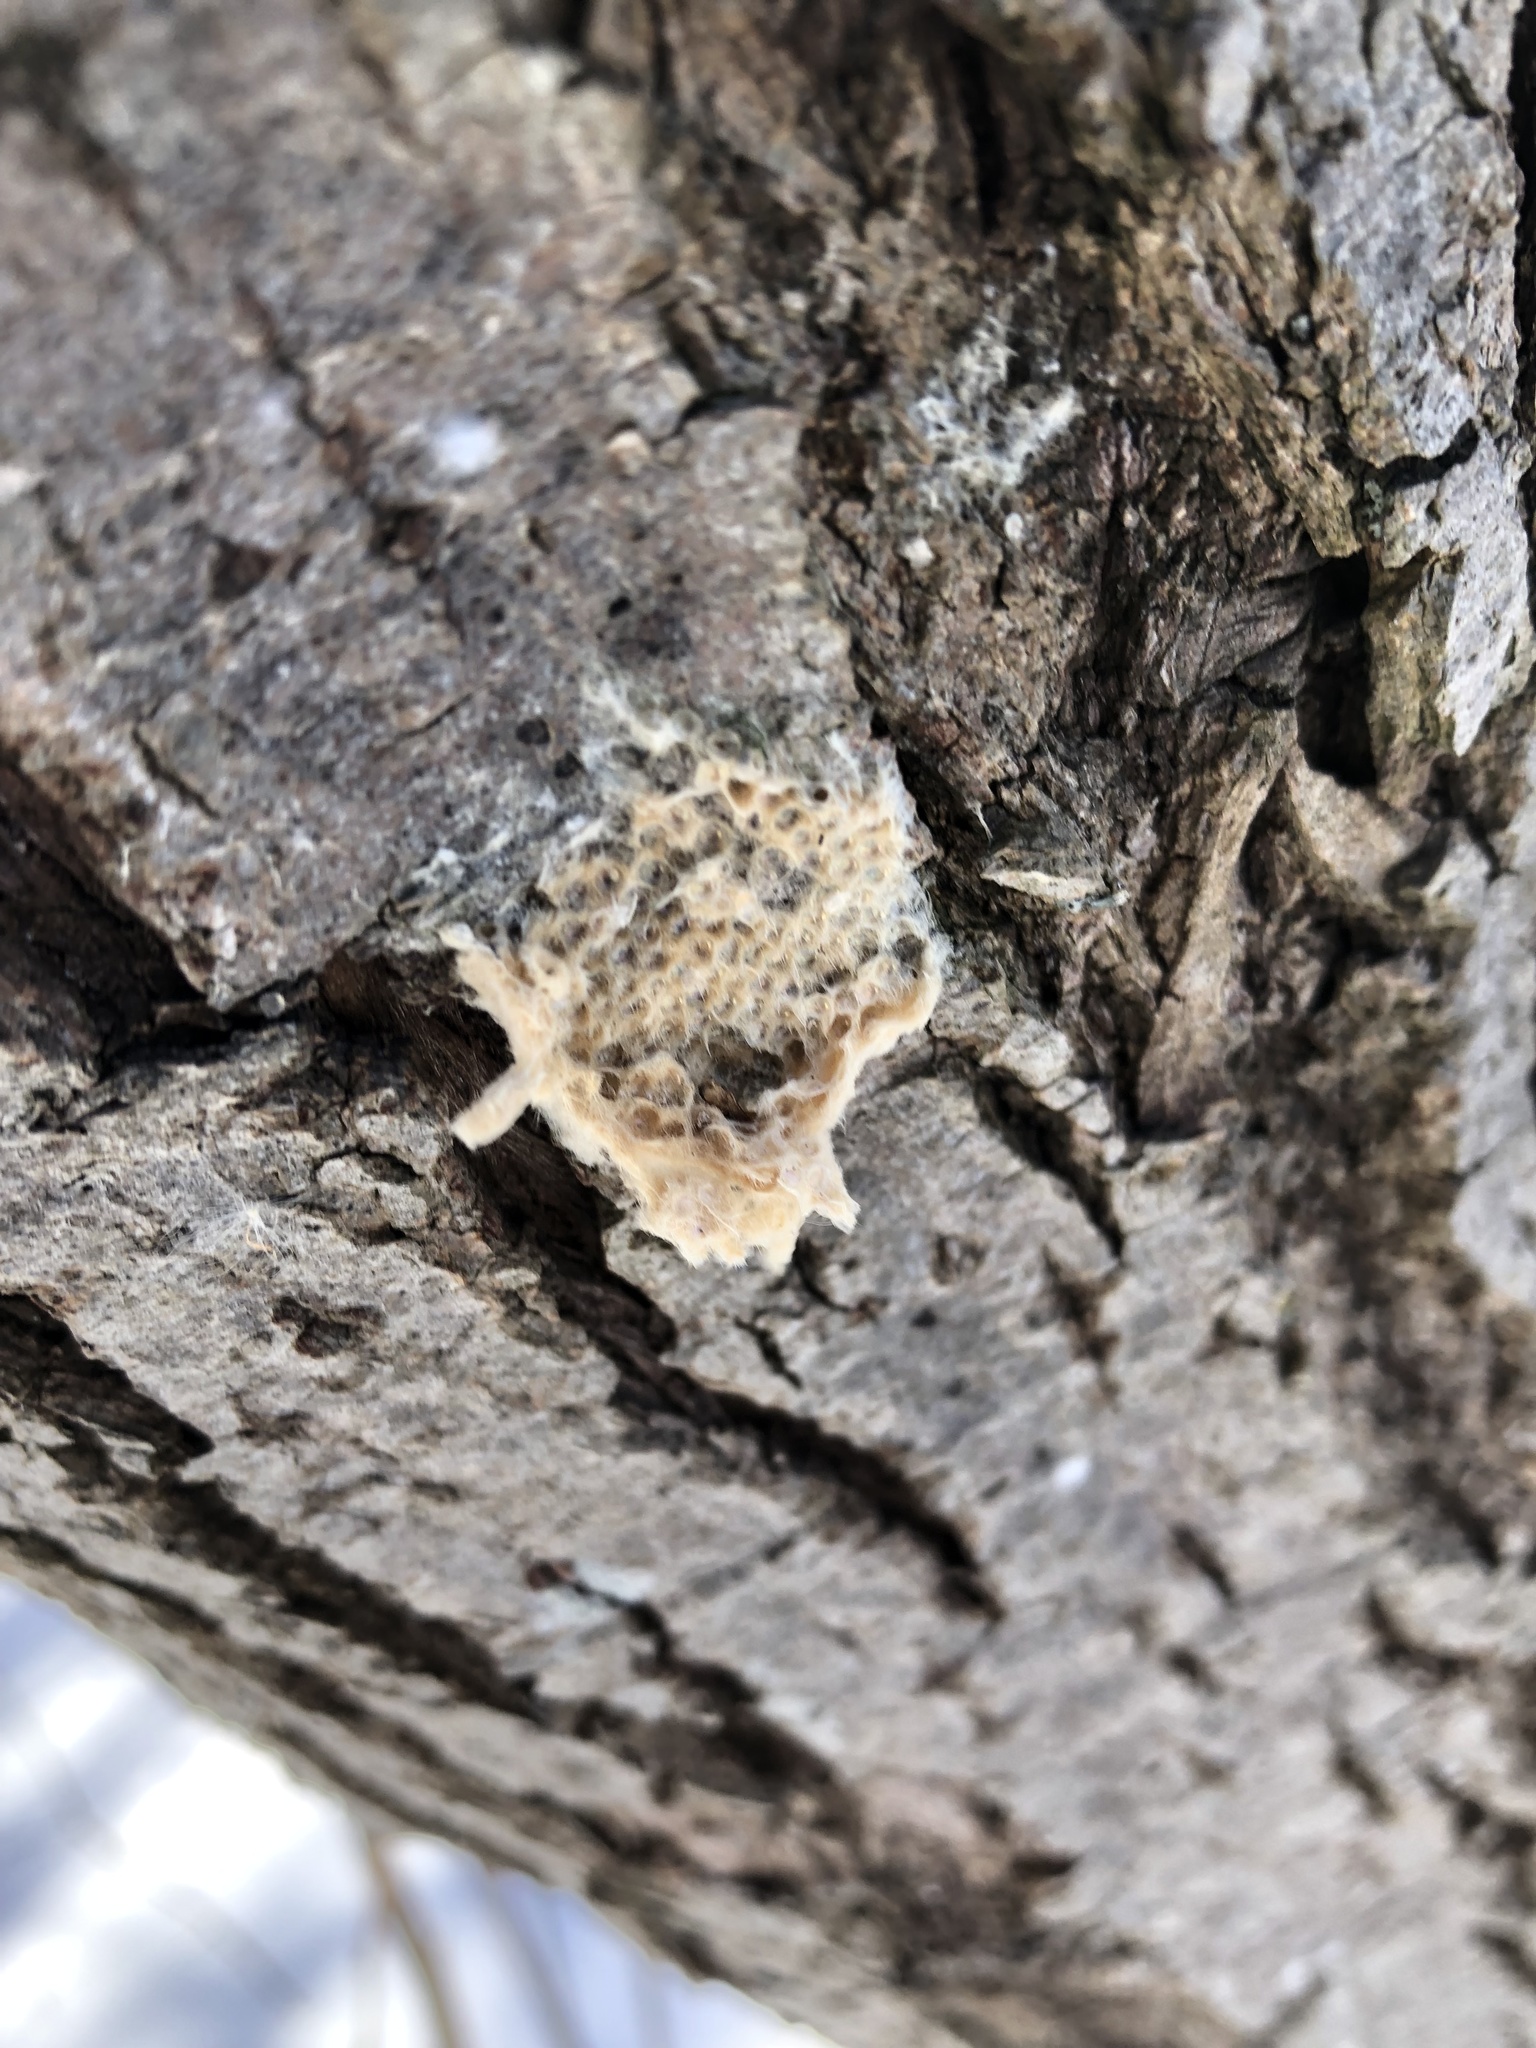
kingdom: Animalia
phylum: Arthropoda
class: Insecta
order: Lepidoptera
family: Erebidae
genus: Lymantria
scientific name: Lymantria dispar
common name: Gypsy moth
